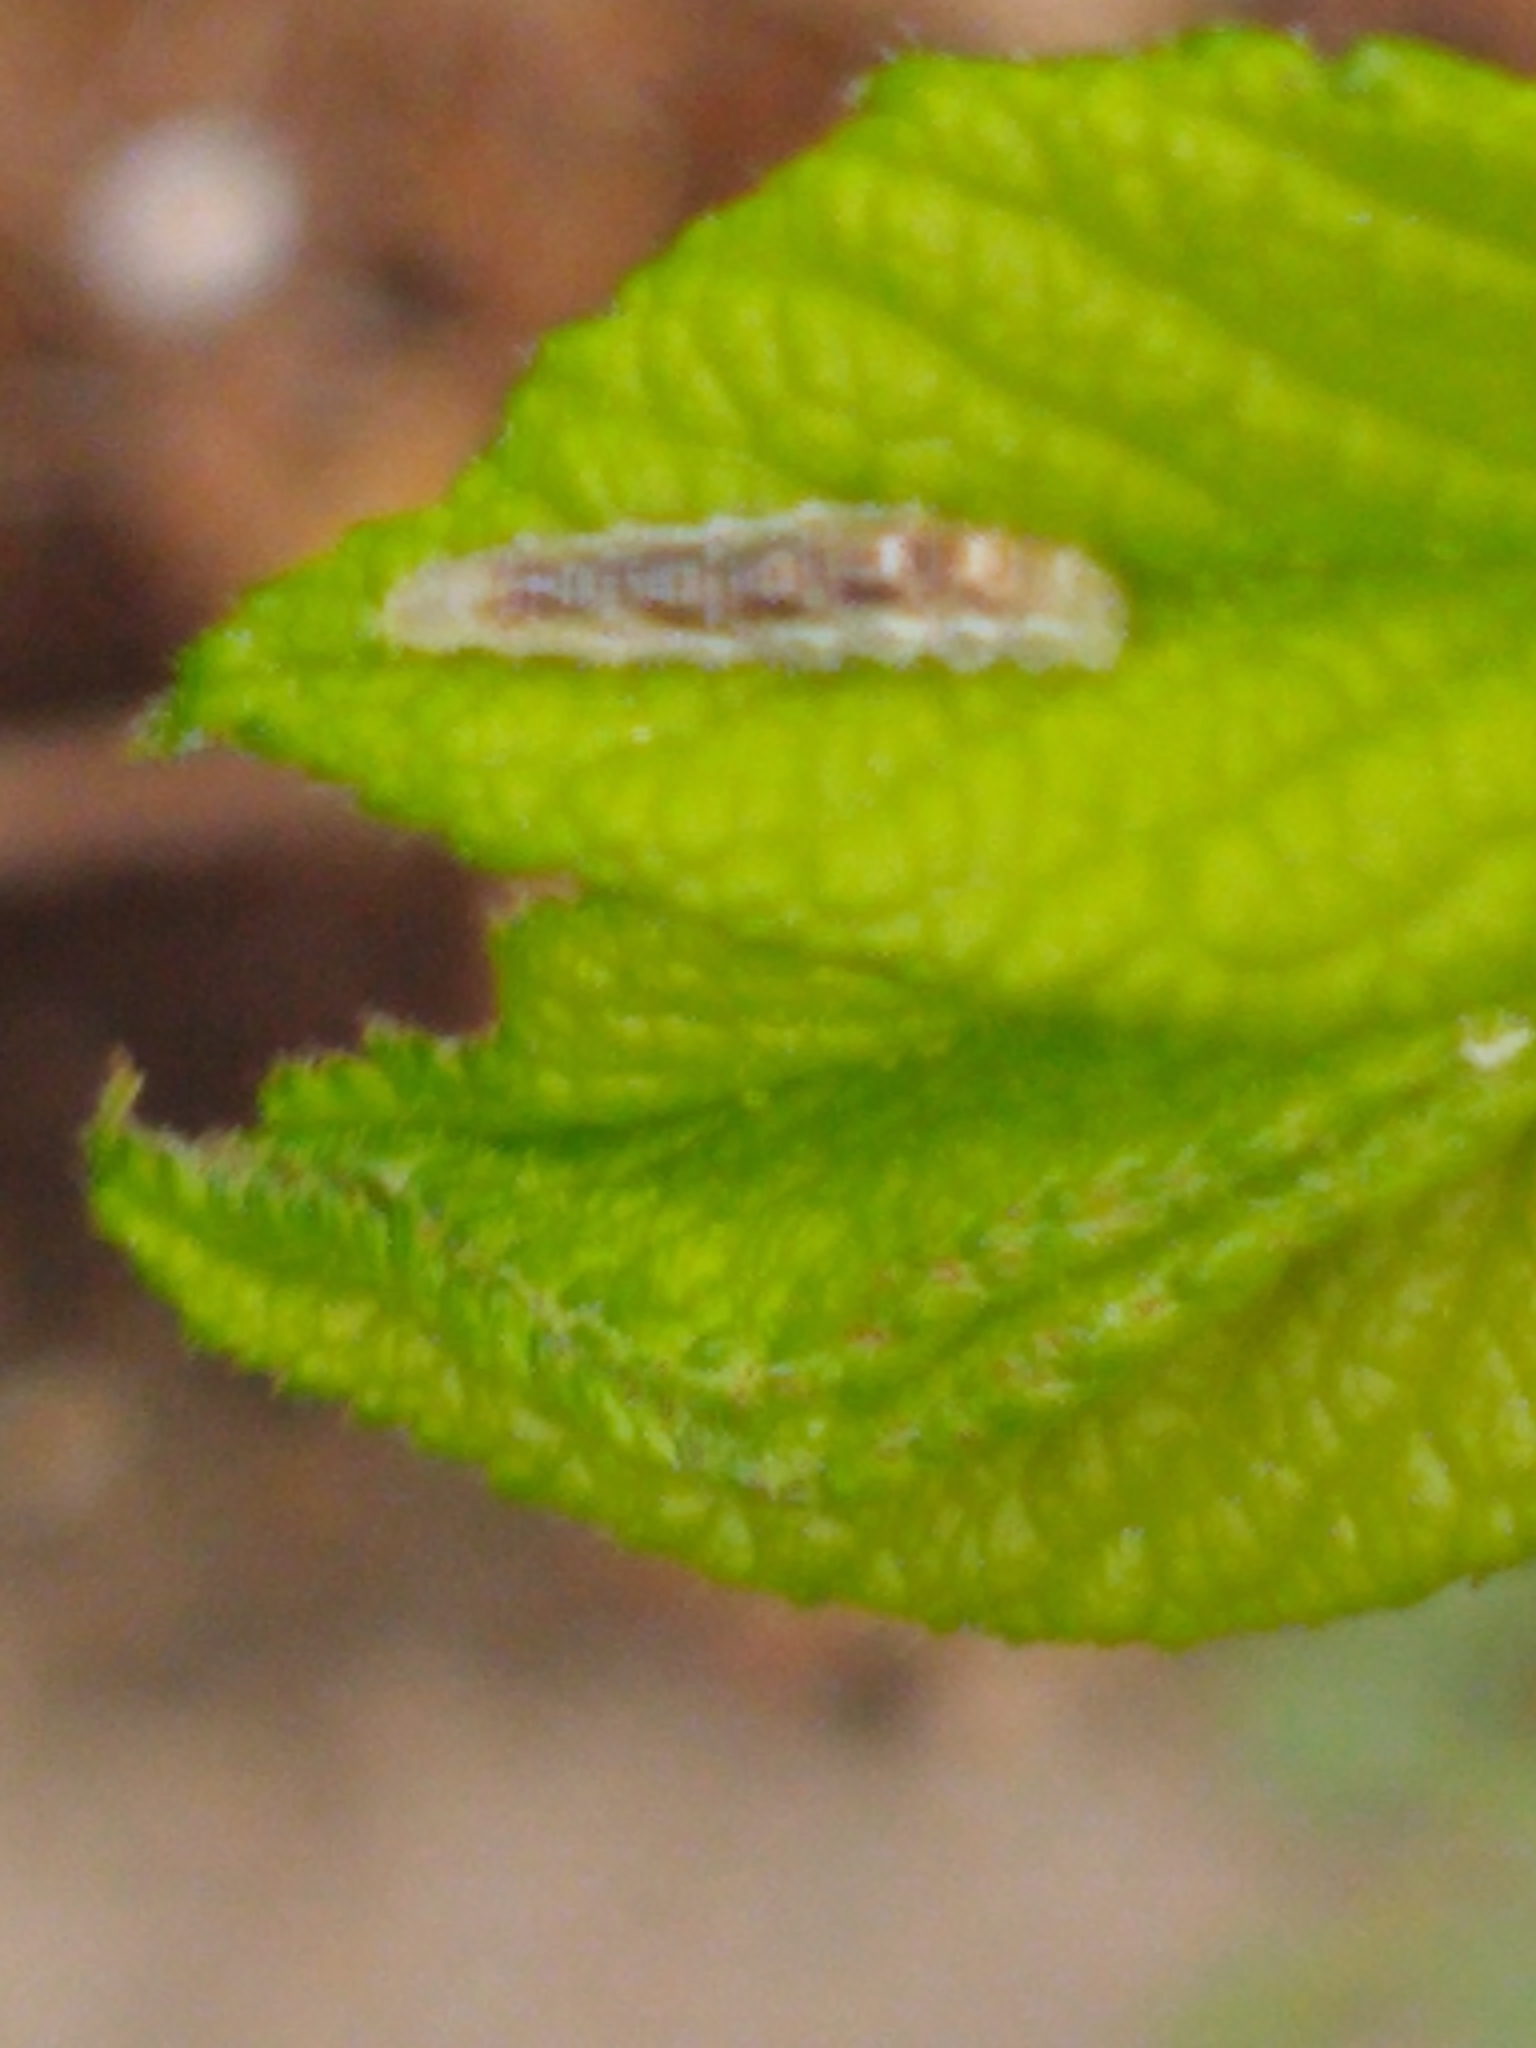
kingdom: Animalia
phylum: Arthropoda
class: Insecta
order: Diptera
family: Syrphidae
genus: Eupeodes
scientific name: Eupeodes americanus
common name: Long-tailed aphideater
